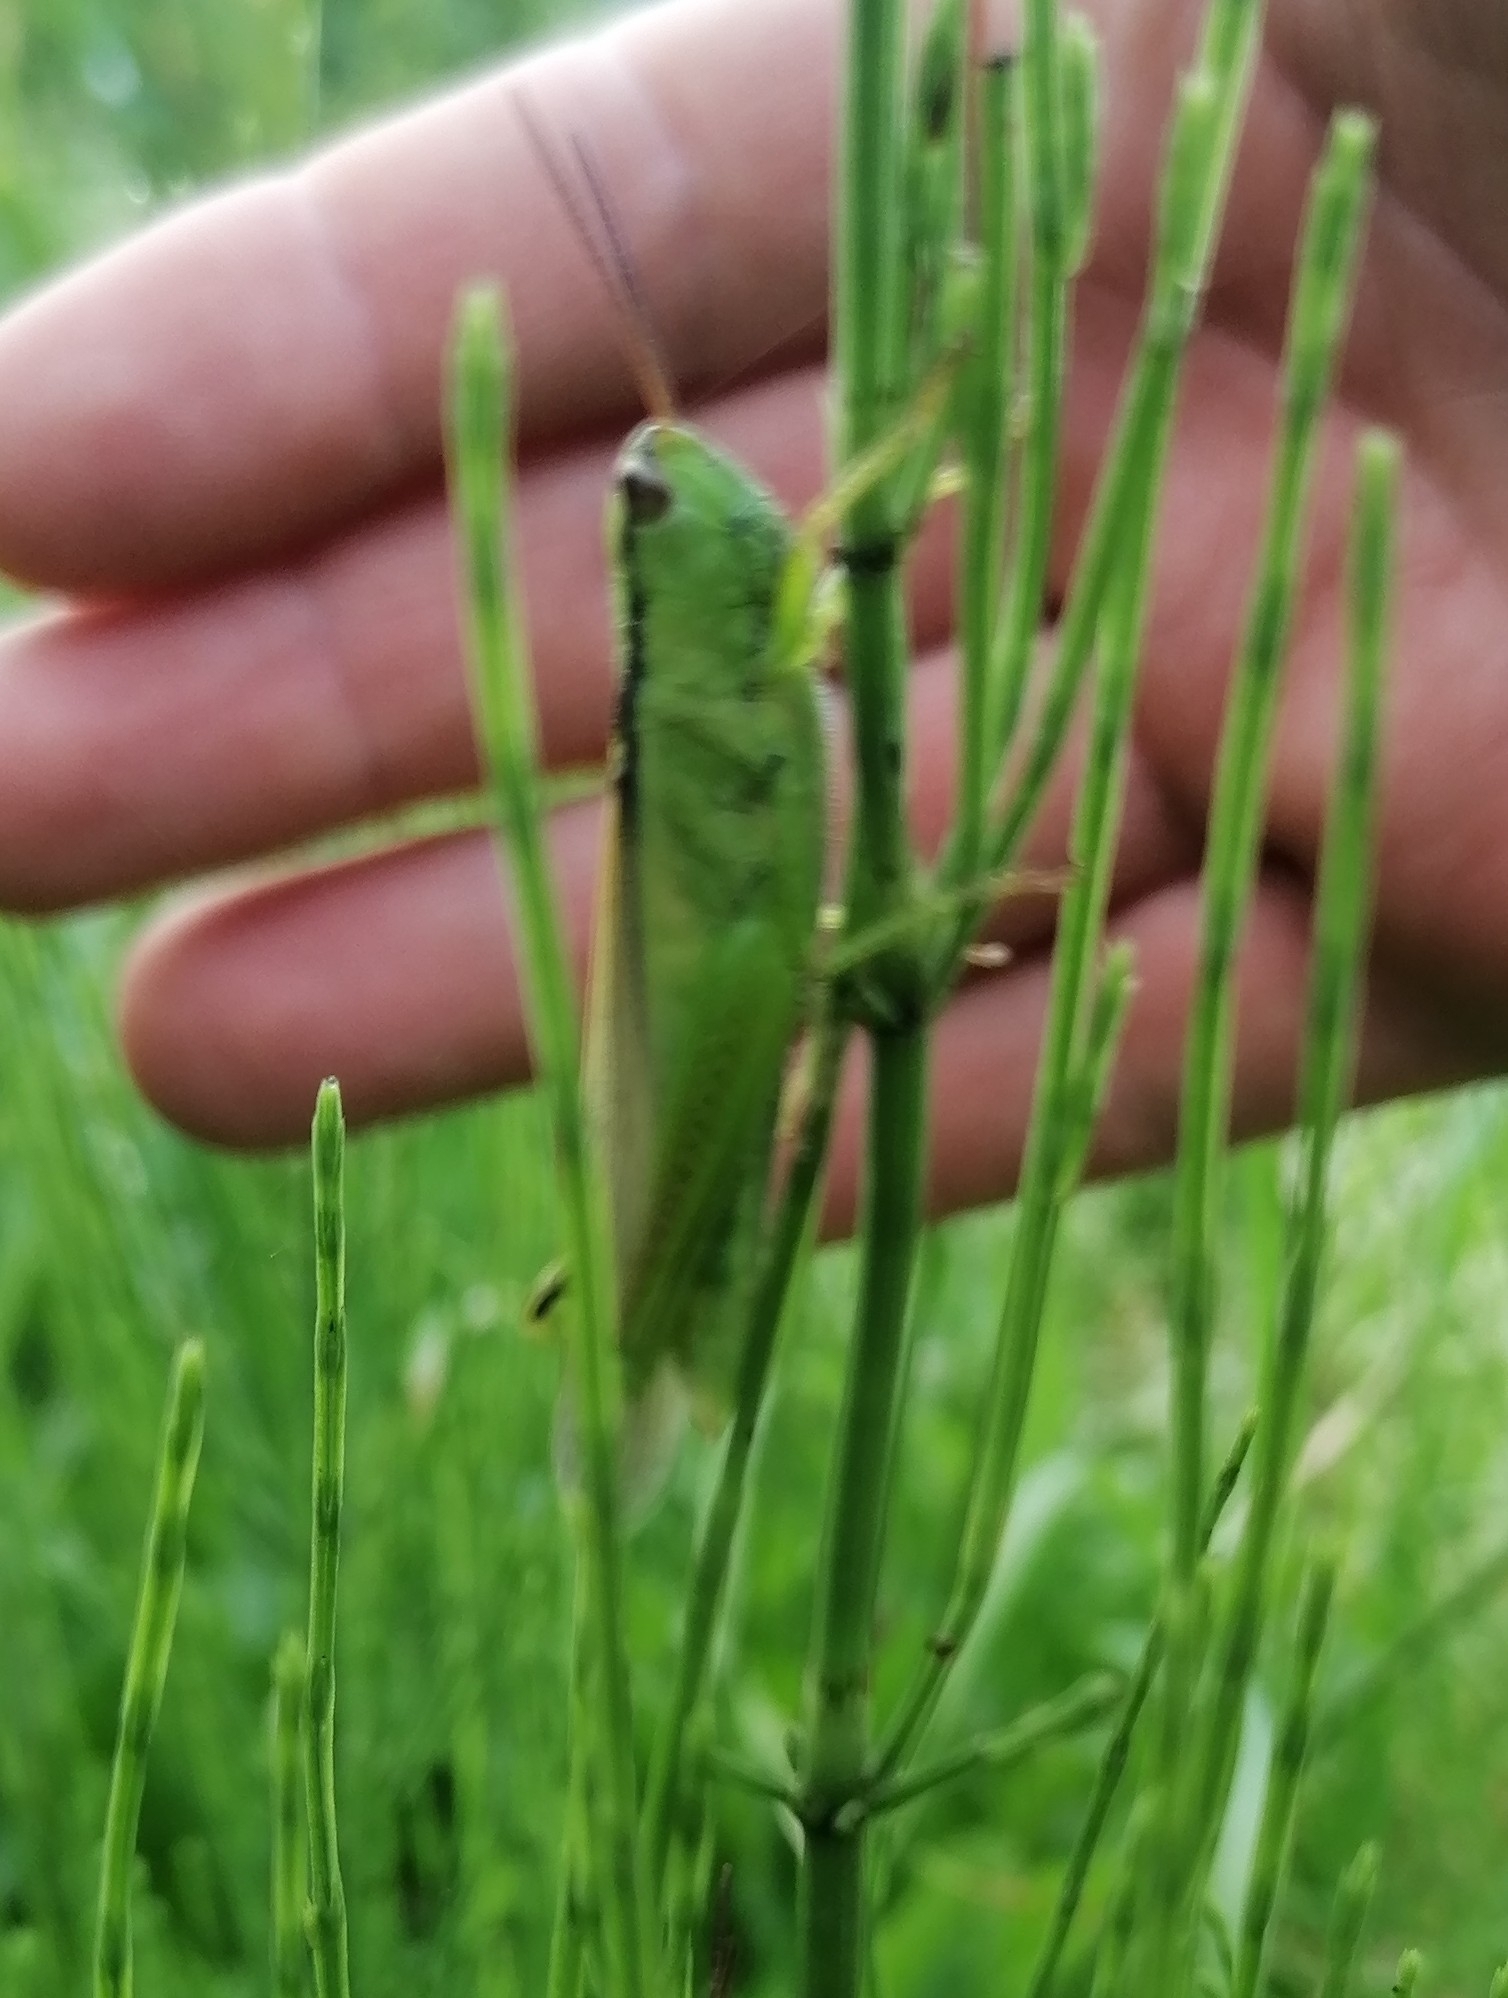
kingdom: Animalia
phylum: Arthropoda
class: Insecta
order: Orthoptera
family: Acrididae
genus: Mecostethus
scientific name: Mecostethus parapleurus
